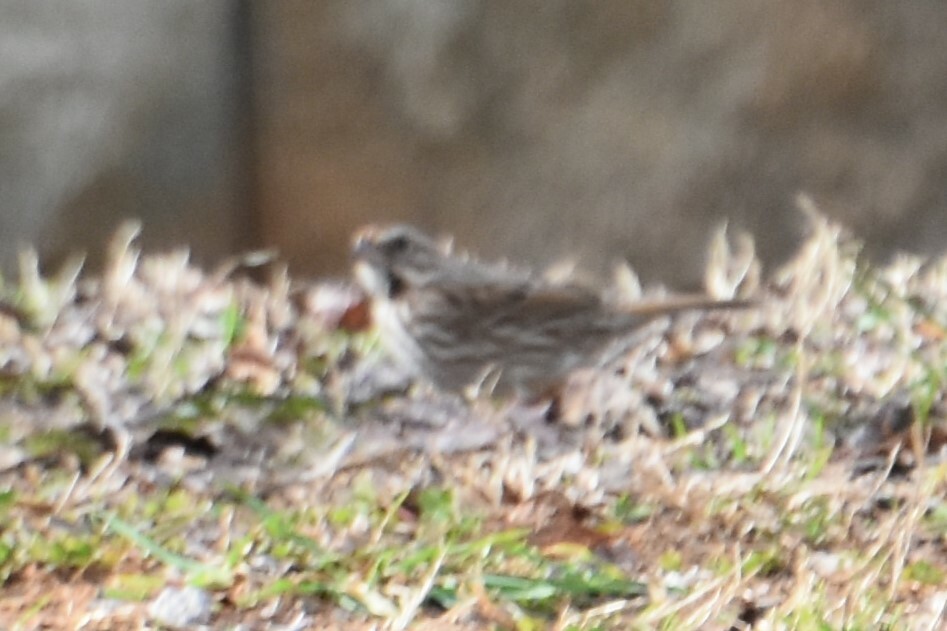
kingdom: Animalia
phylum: Chordata
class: Aves
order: Passeriformes
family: Passerellidae
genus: Melospiza
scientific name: Melospiza melodia
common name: Song sparrow
